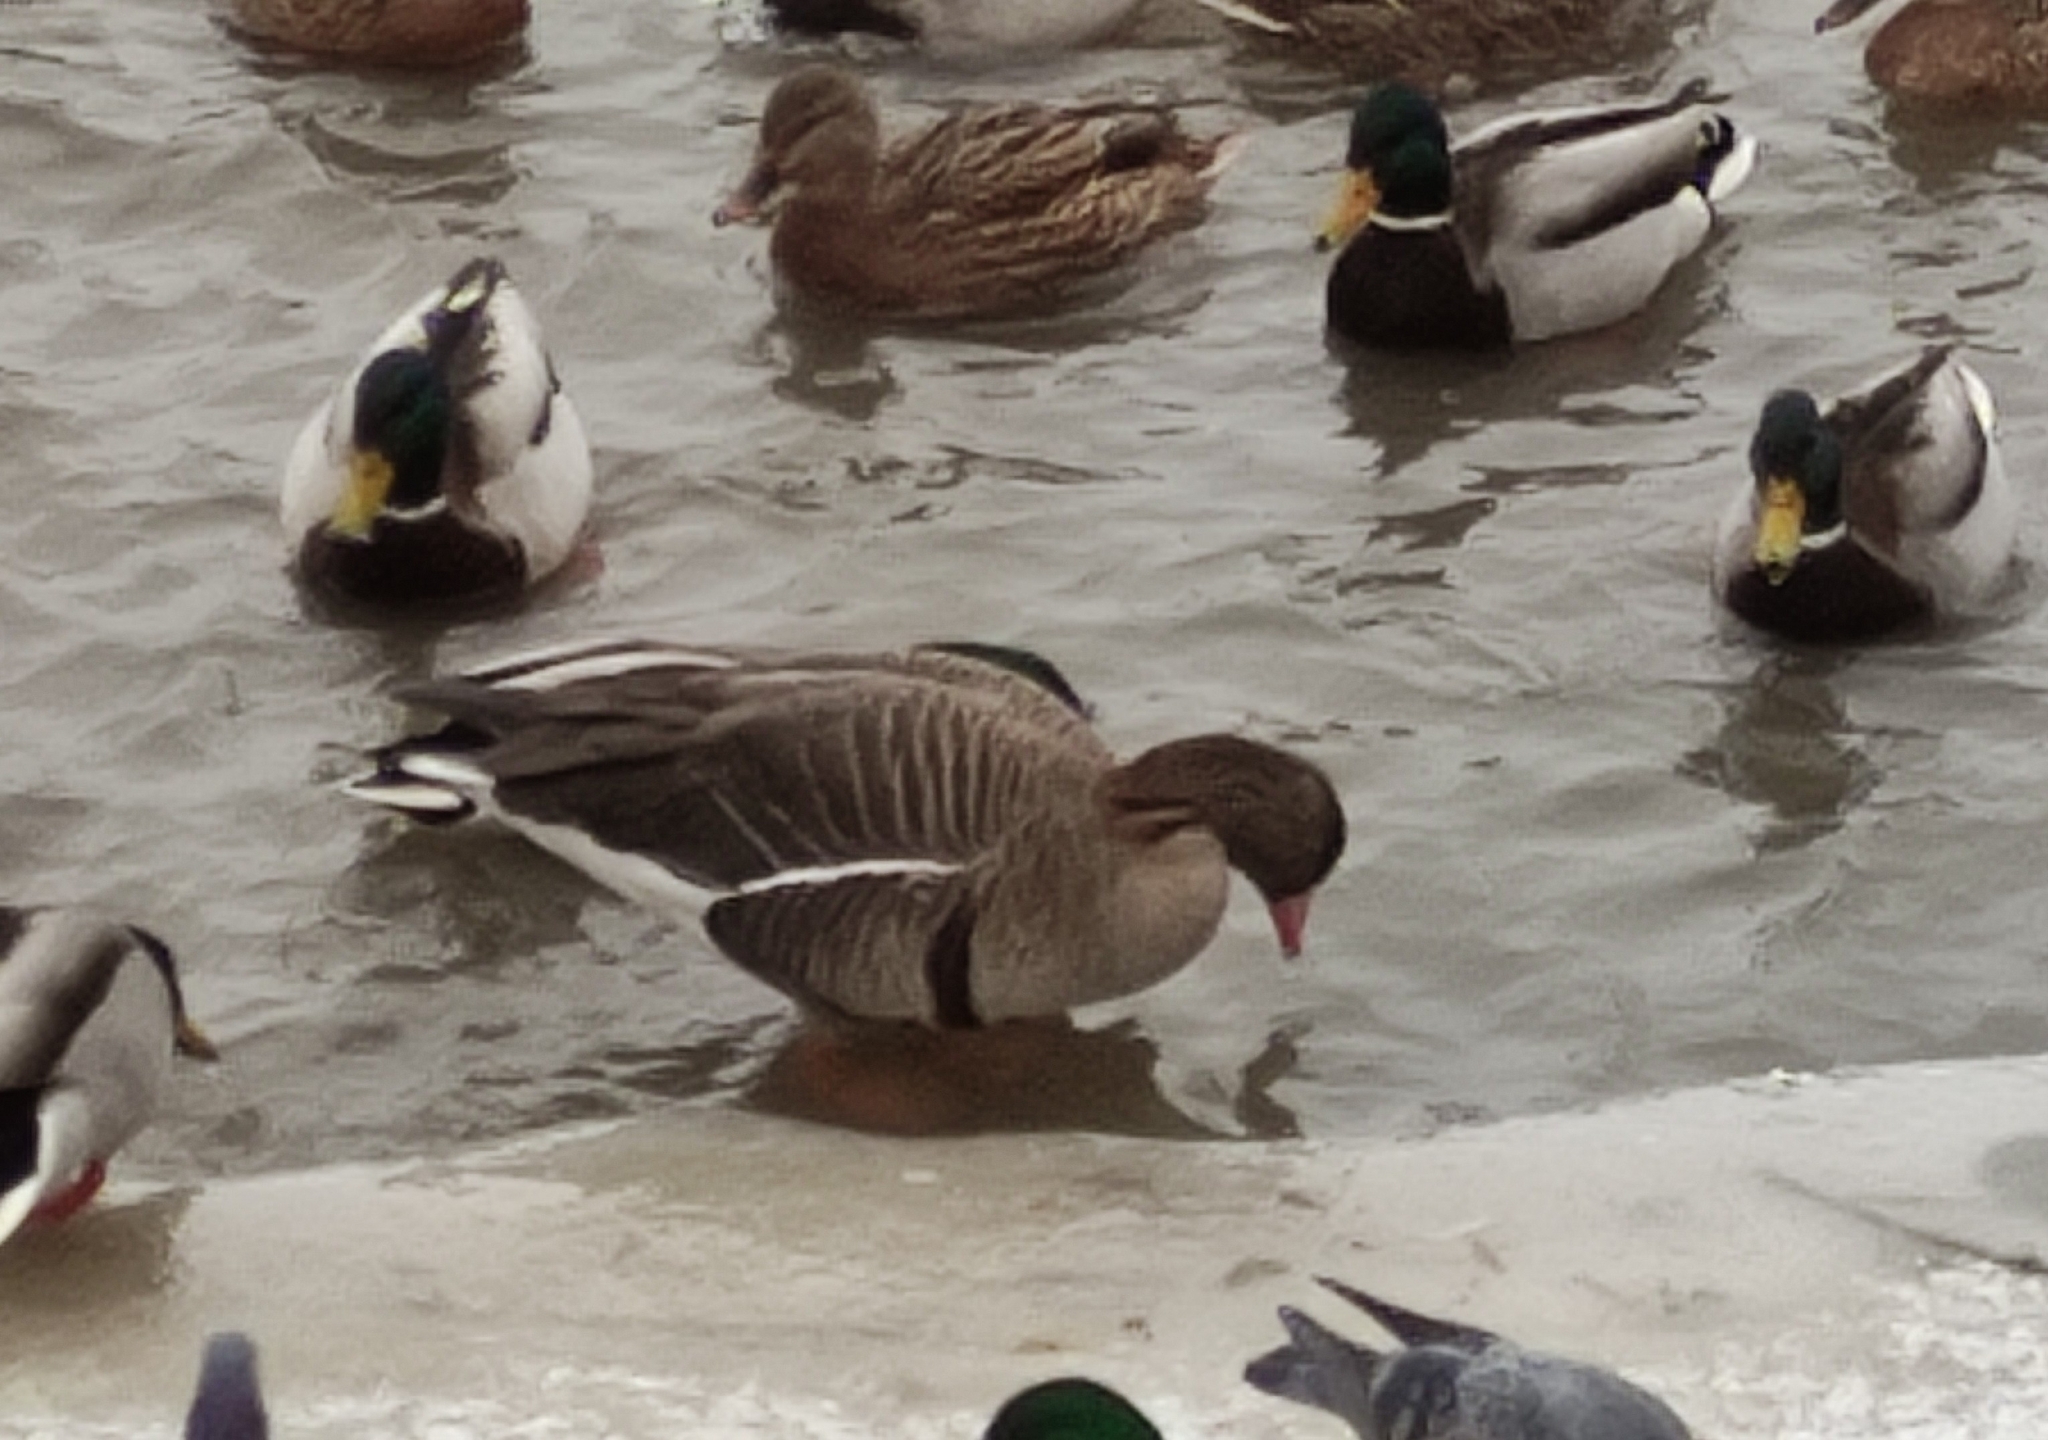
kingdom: Animalia
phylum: Chordata
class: Aves
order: Anseriformes
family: Anatidae
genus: Anser
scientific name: Anser albifrons
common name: Greater white-fronted goose
